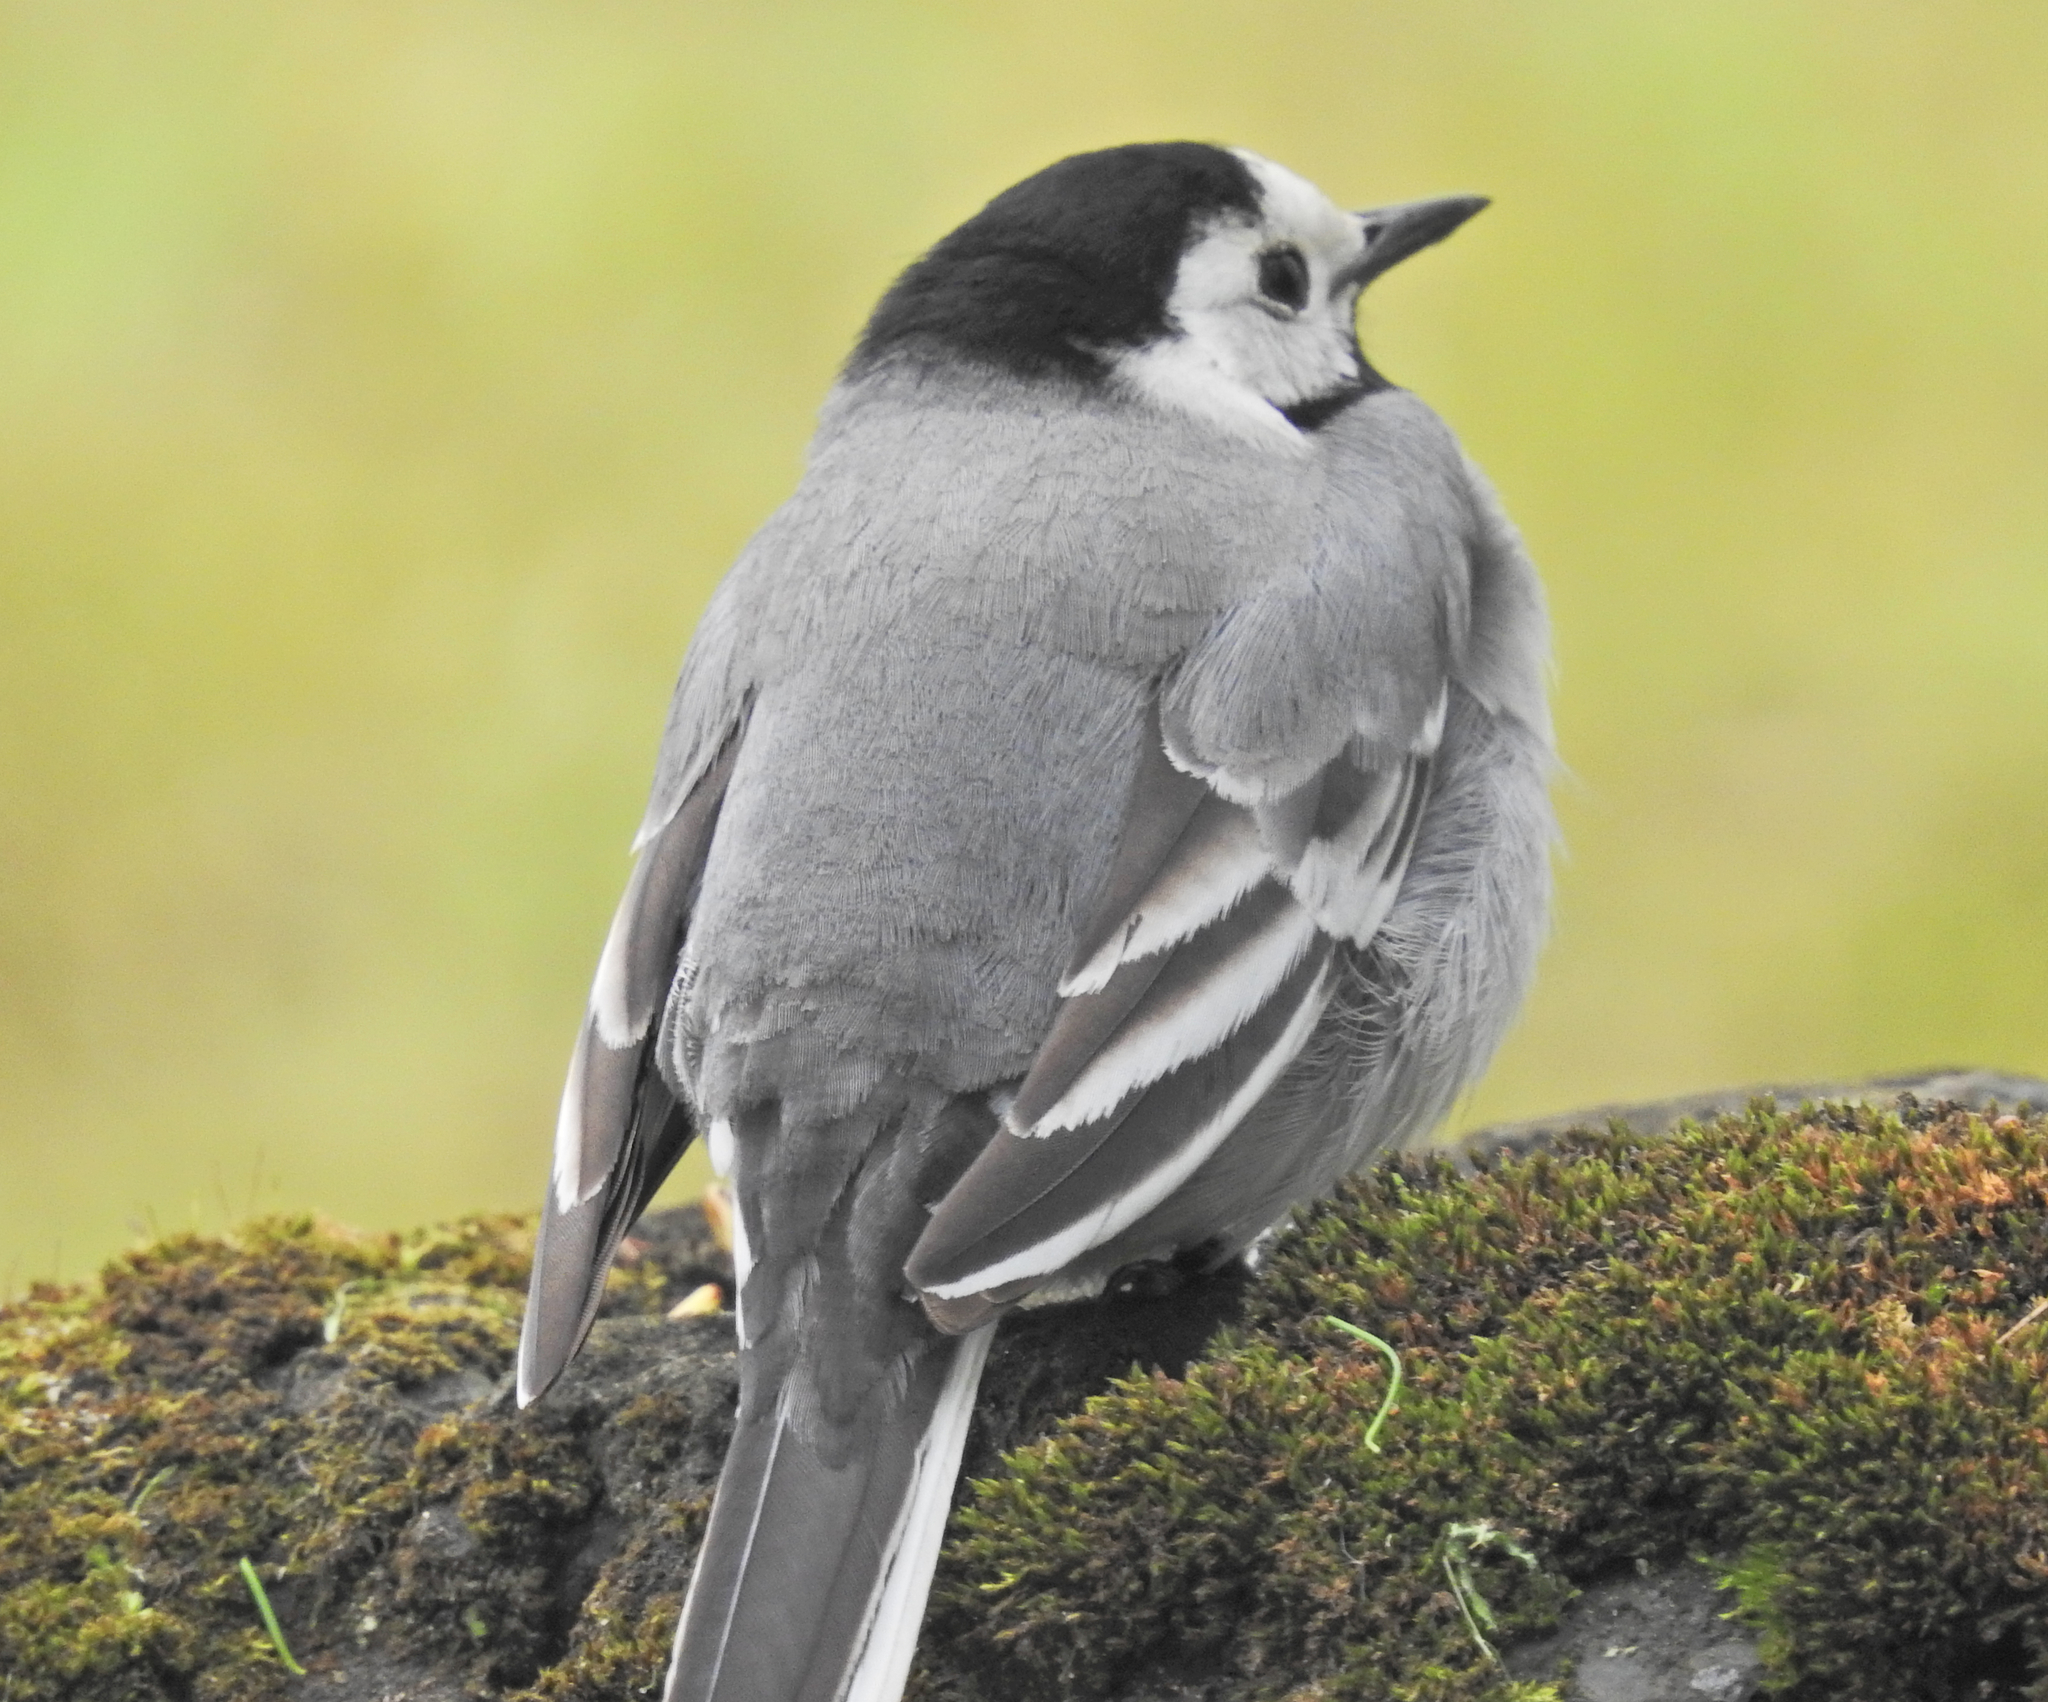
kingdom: Animalia
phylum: Chordata
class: Aves
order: Passeriformes
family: Motacillidae
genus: Motacilla
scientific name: Motacilla alba
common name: White wagtail
